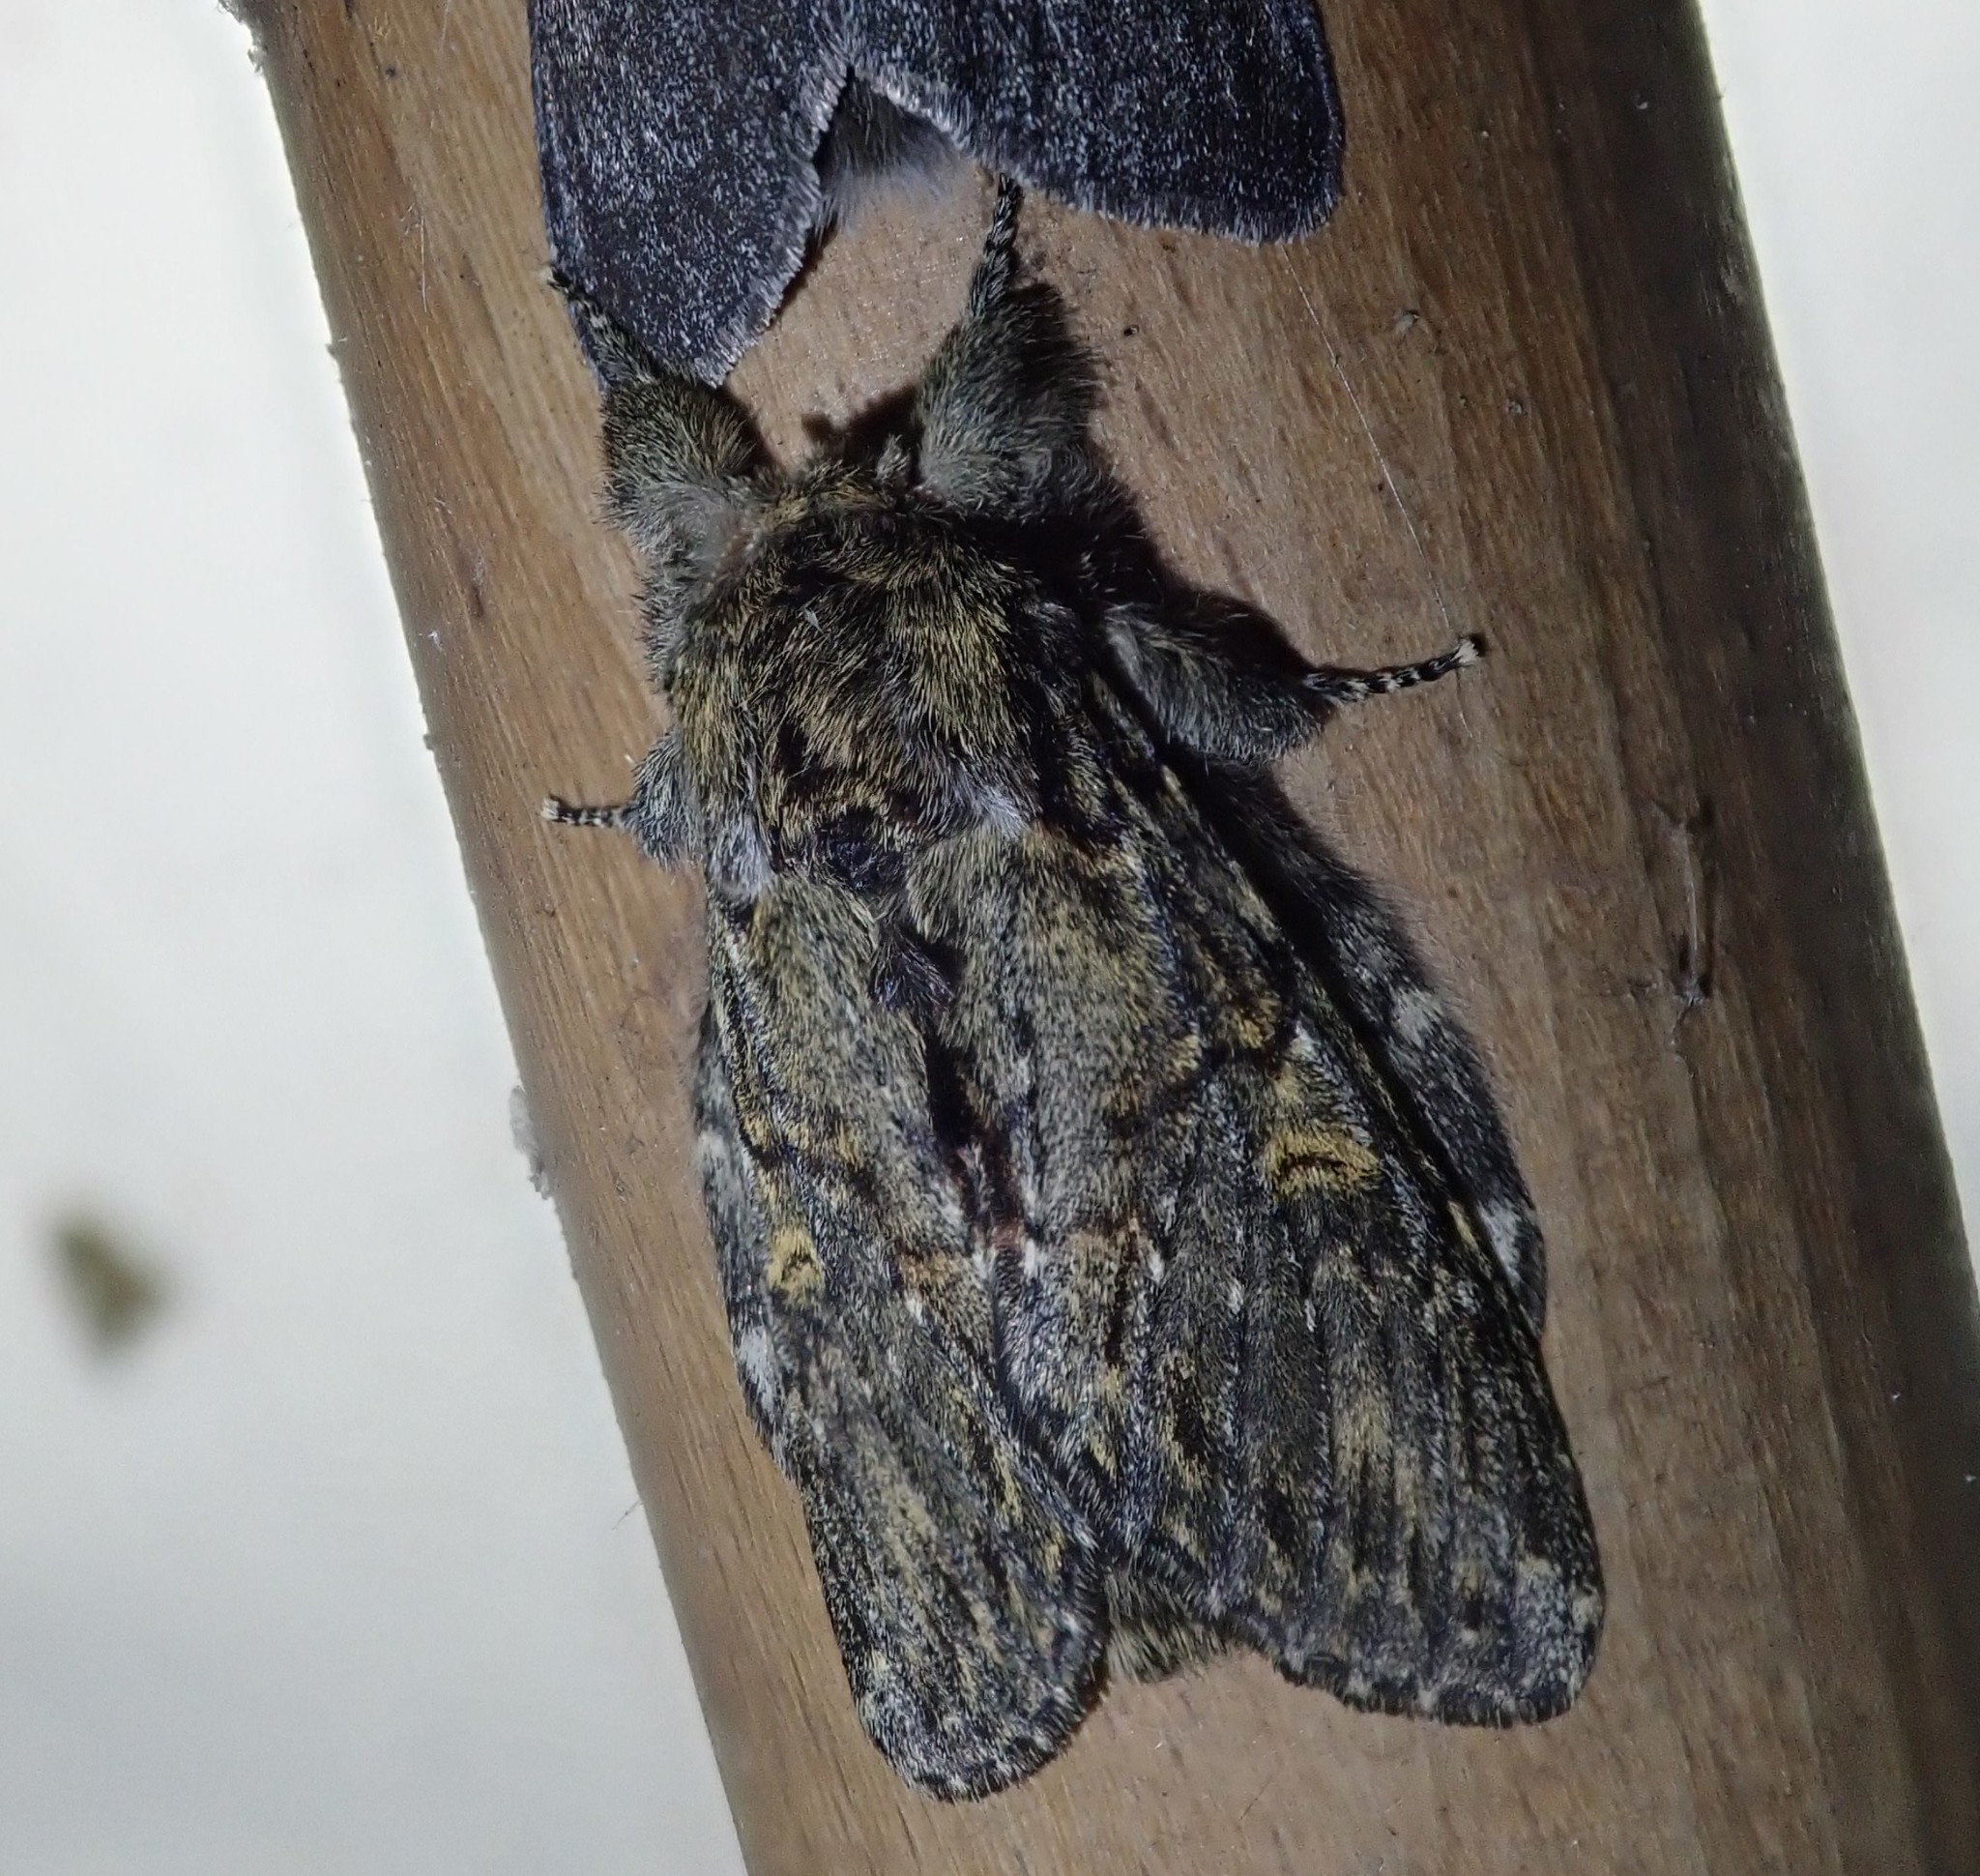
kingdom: Animalia
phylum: Arthropoda
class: Insecta
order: Lepidoptera
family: Notodontidae
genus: Peridea
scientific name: Peridea anceps
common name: Great prominent
